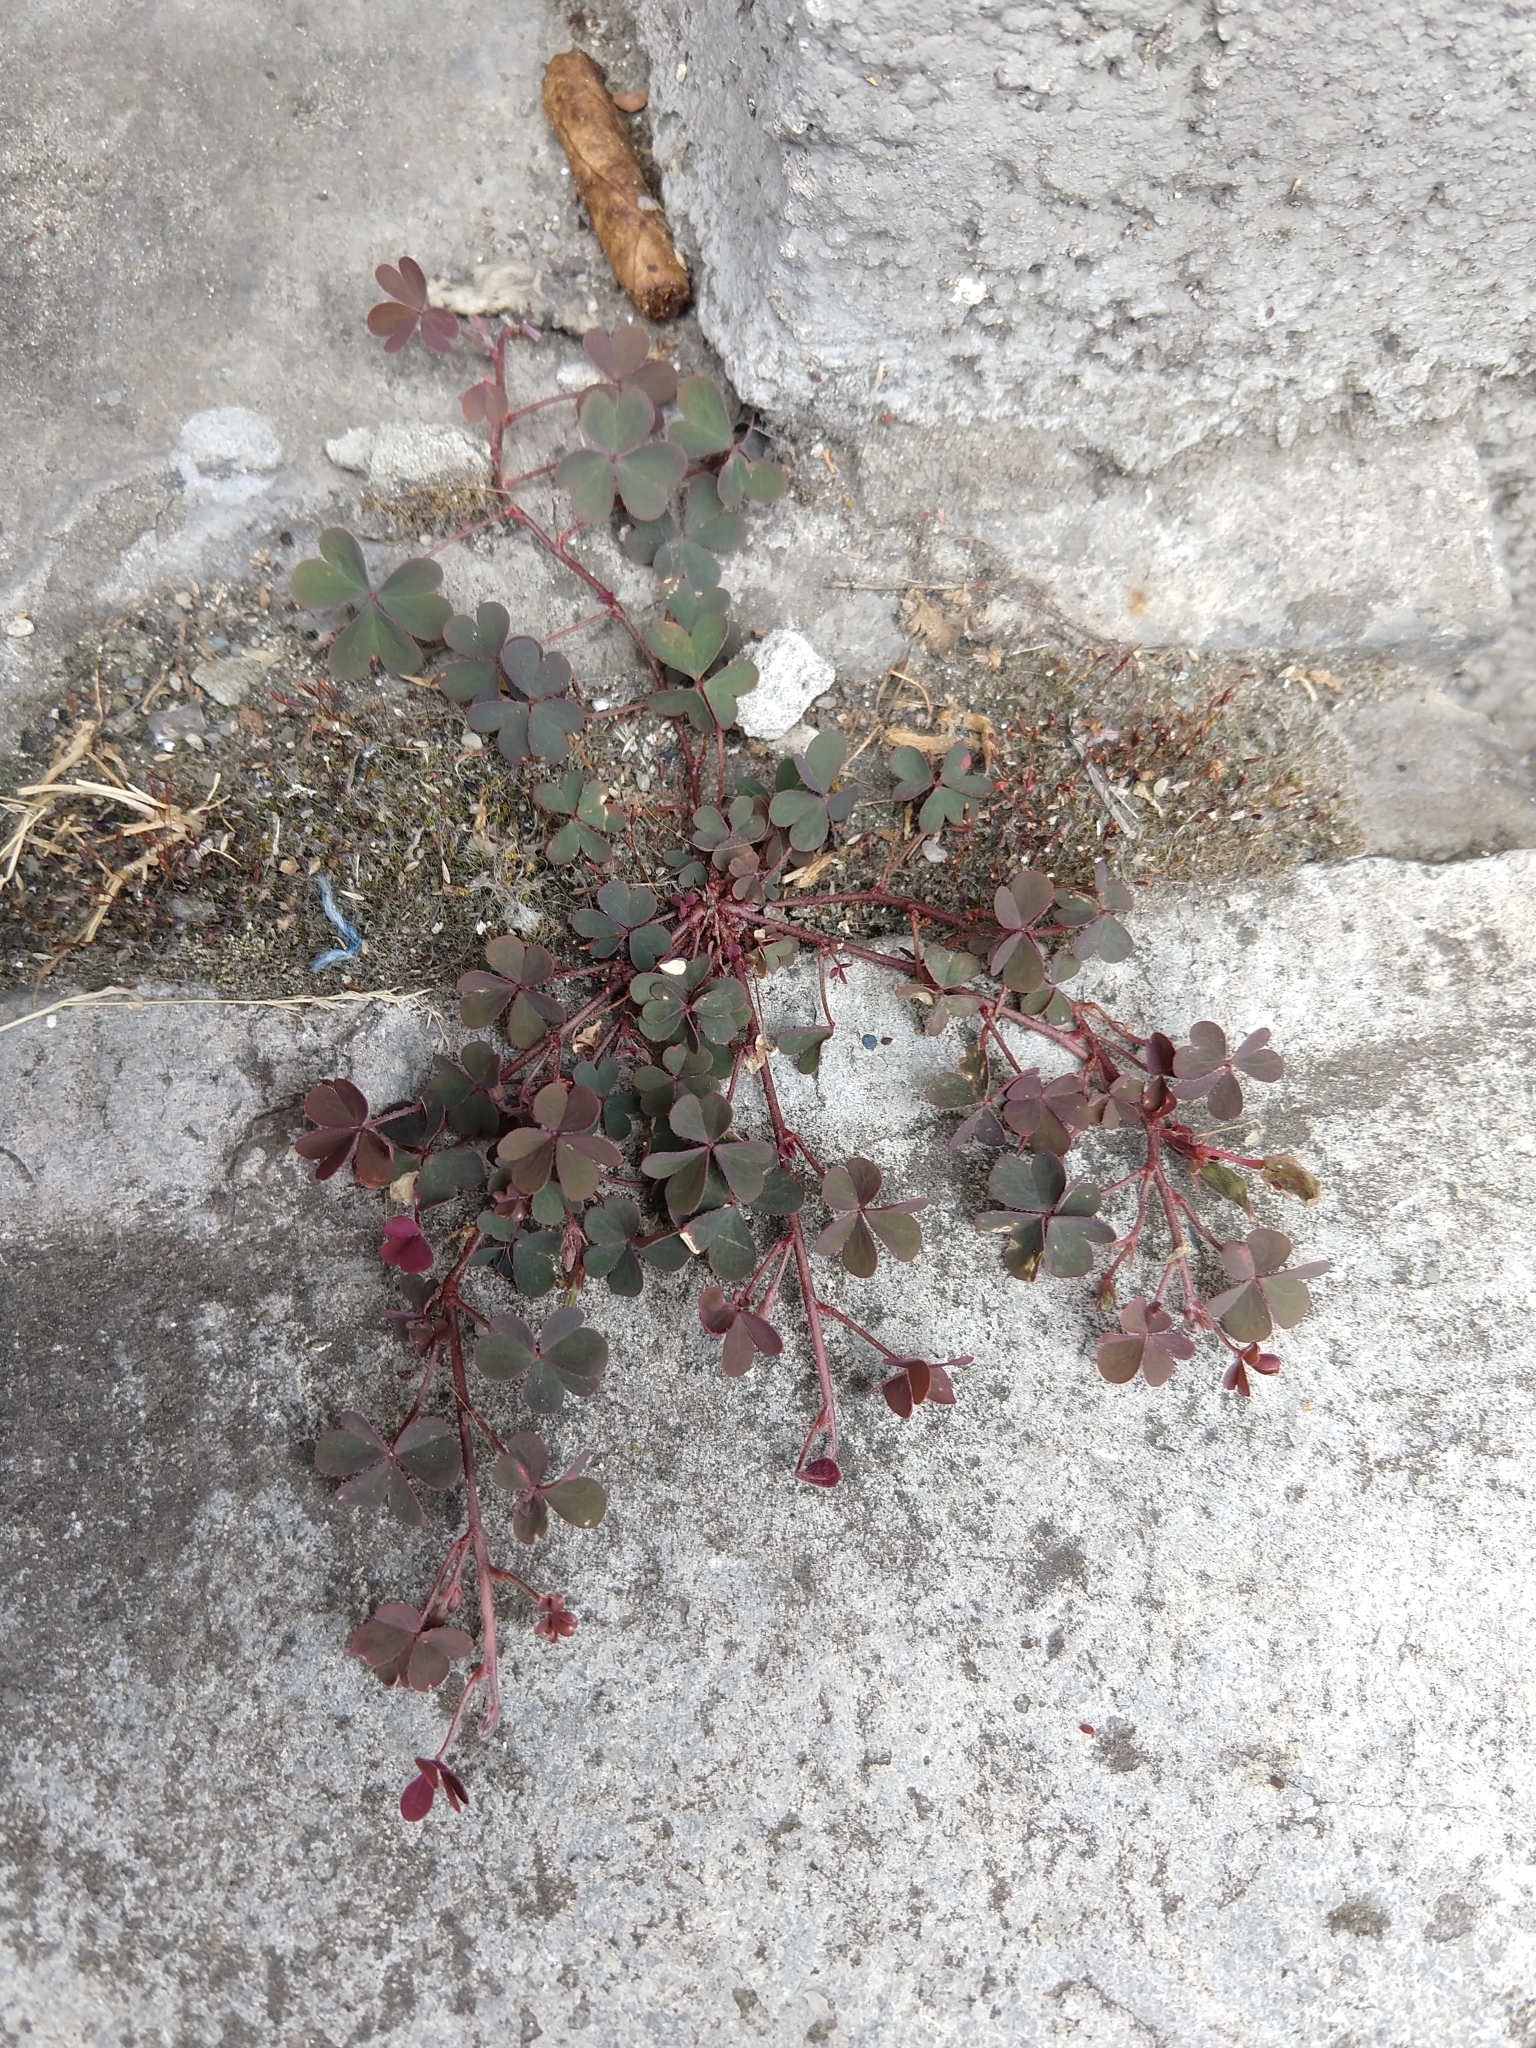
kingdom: Plantae
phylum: Tracheophyta
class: Magnoliopsida
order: Oxalidales
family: Oxalidaceae
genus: Oxalis
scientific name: Oxalis corniculata
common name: Procumbent yellow-sorrel
